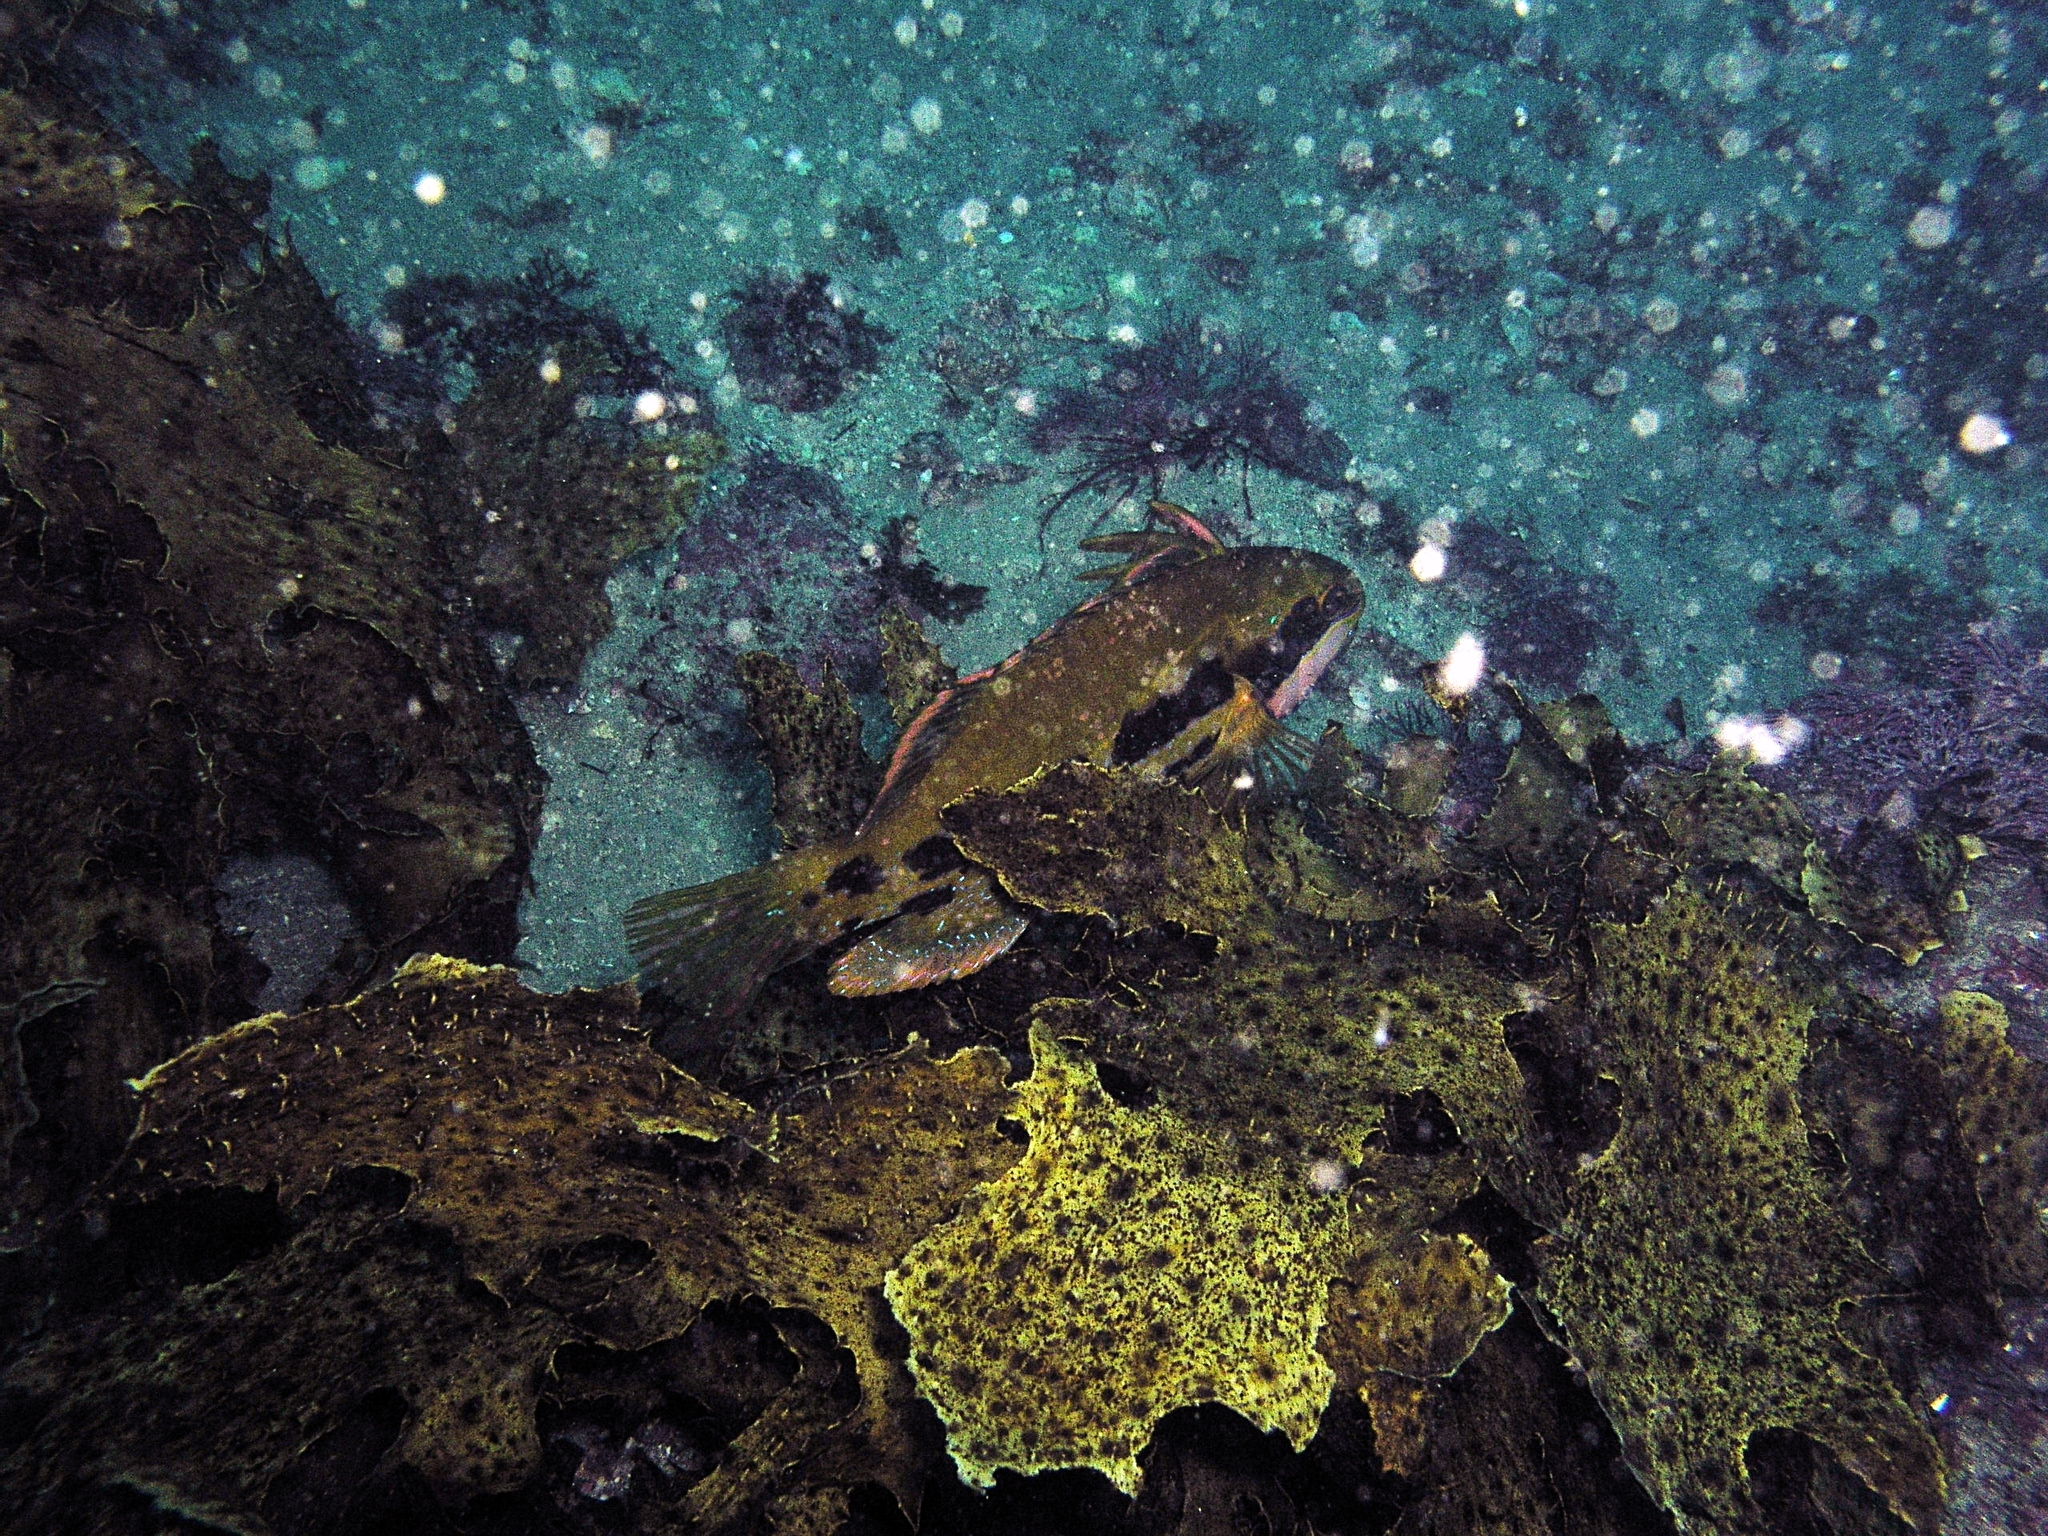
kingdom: Animalia
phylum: Chordata
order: Perciformes
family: Odacidae
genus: Heteroscarus
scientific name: Heteroscarus acroptilus
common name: Marine rainbowfish
